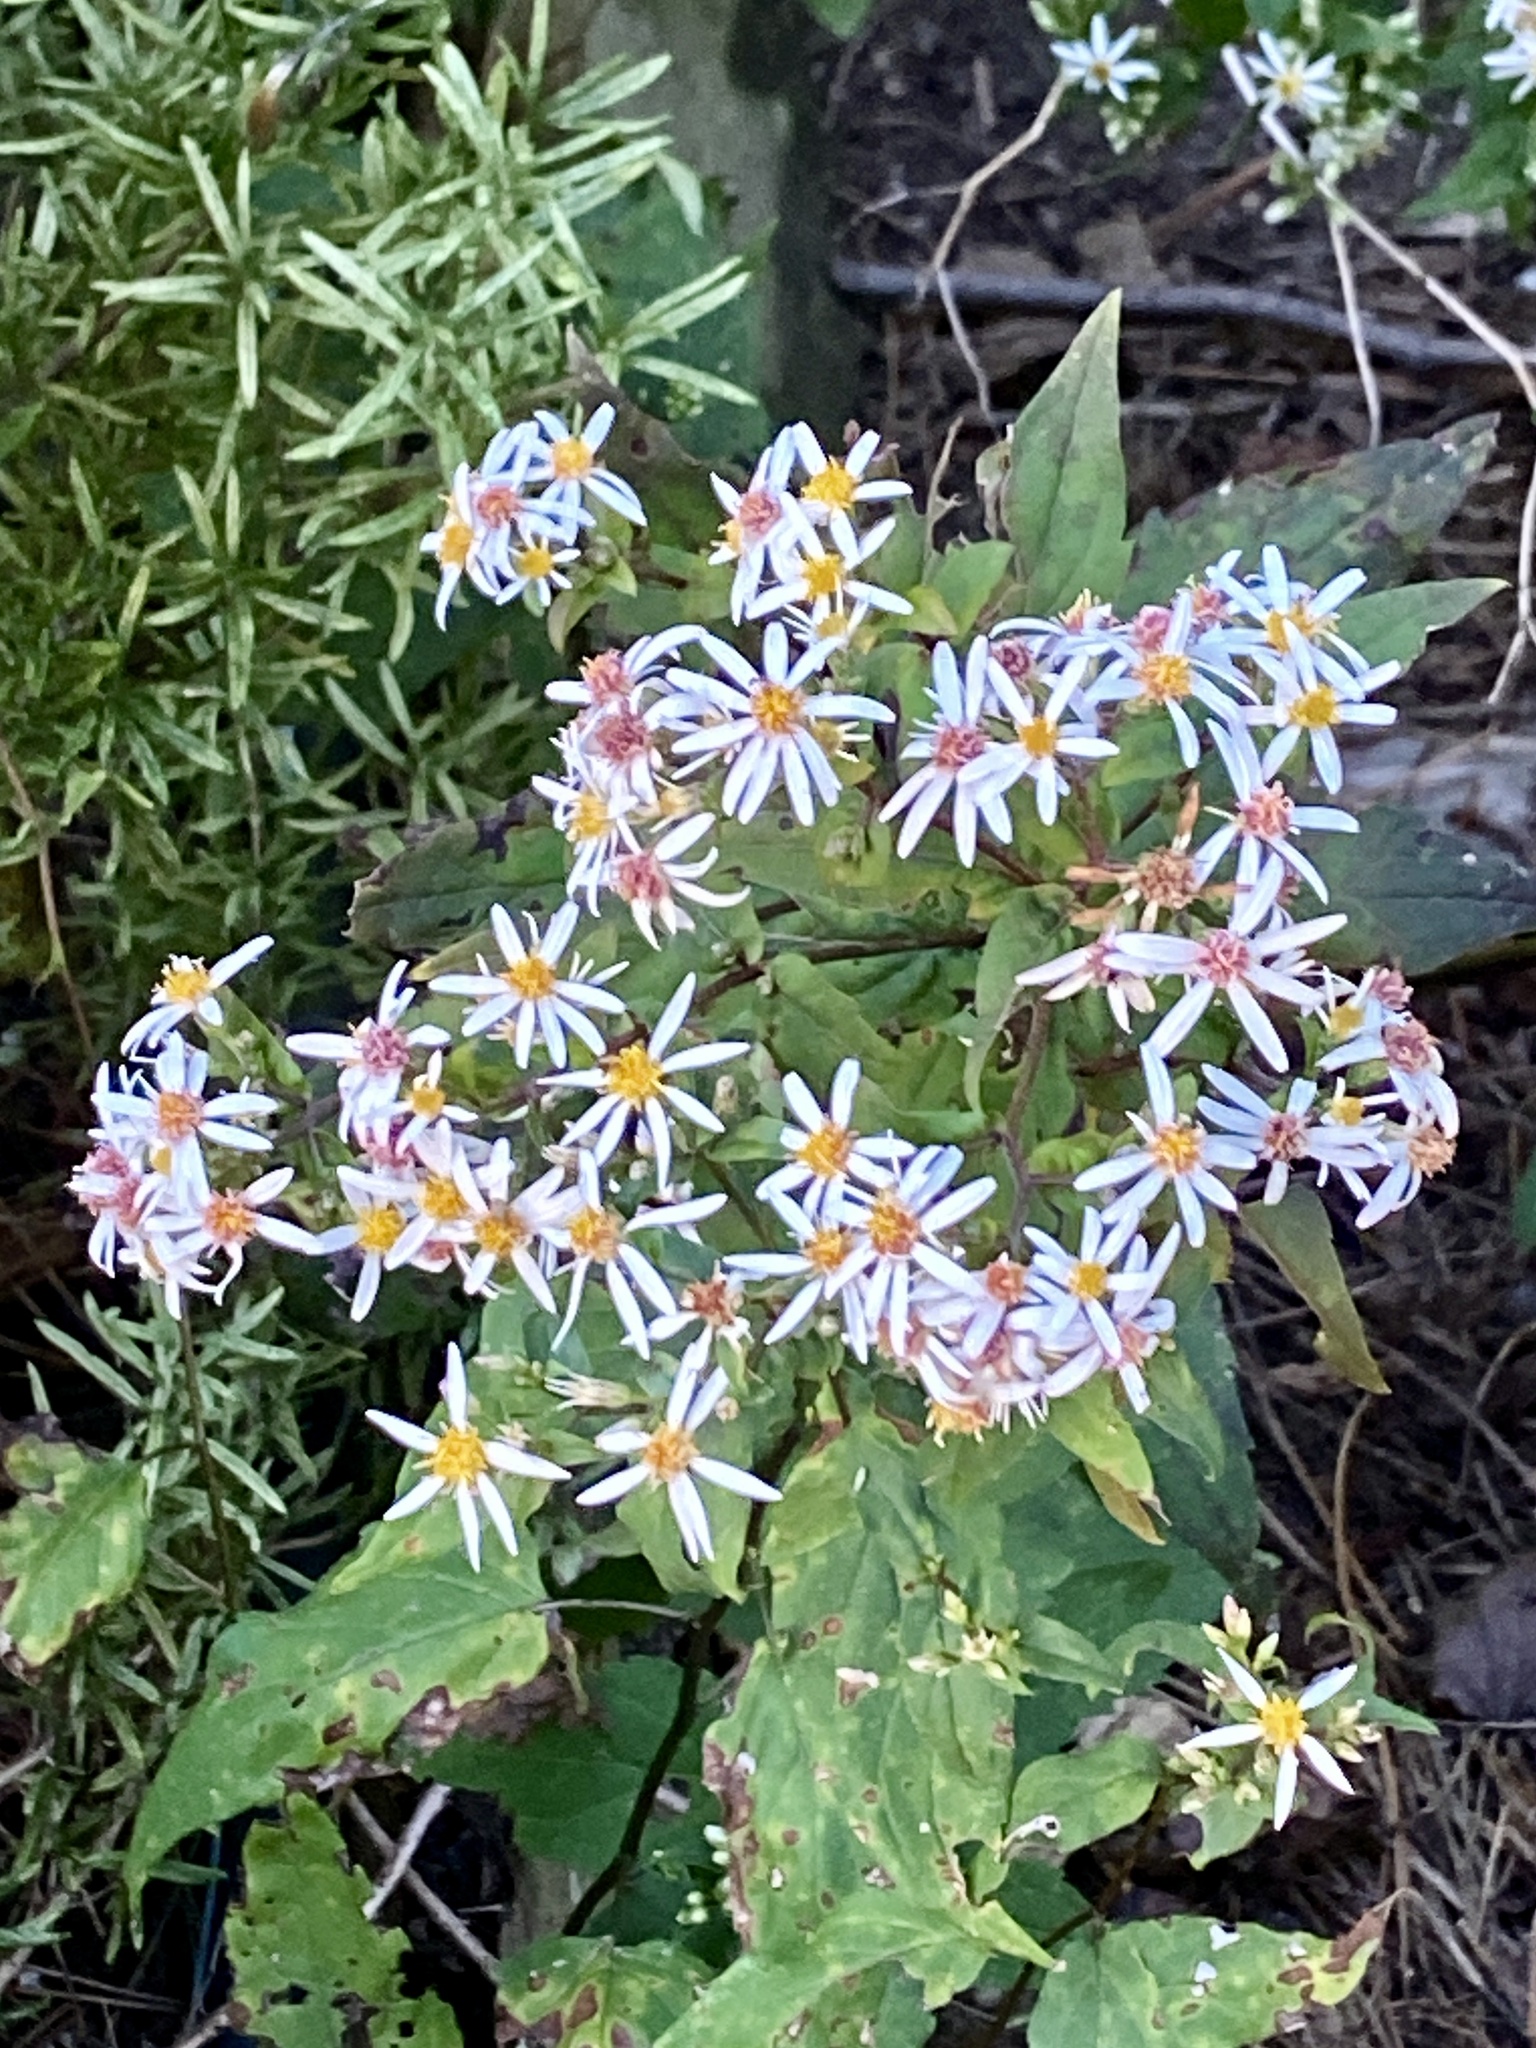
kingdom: Plantae
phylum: Tracheophyta
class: Magnoliopsida
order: Asterales
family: Asteraceae
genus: Eurybia
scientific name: Eurybia divaricata
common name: White wood aster
